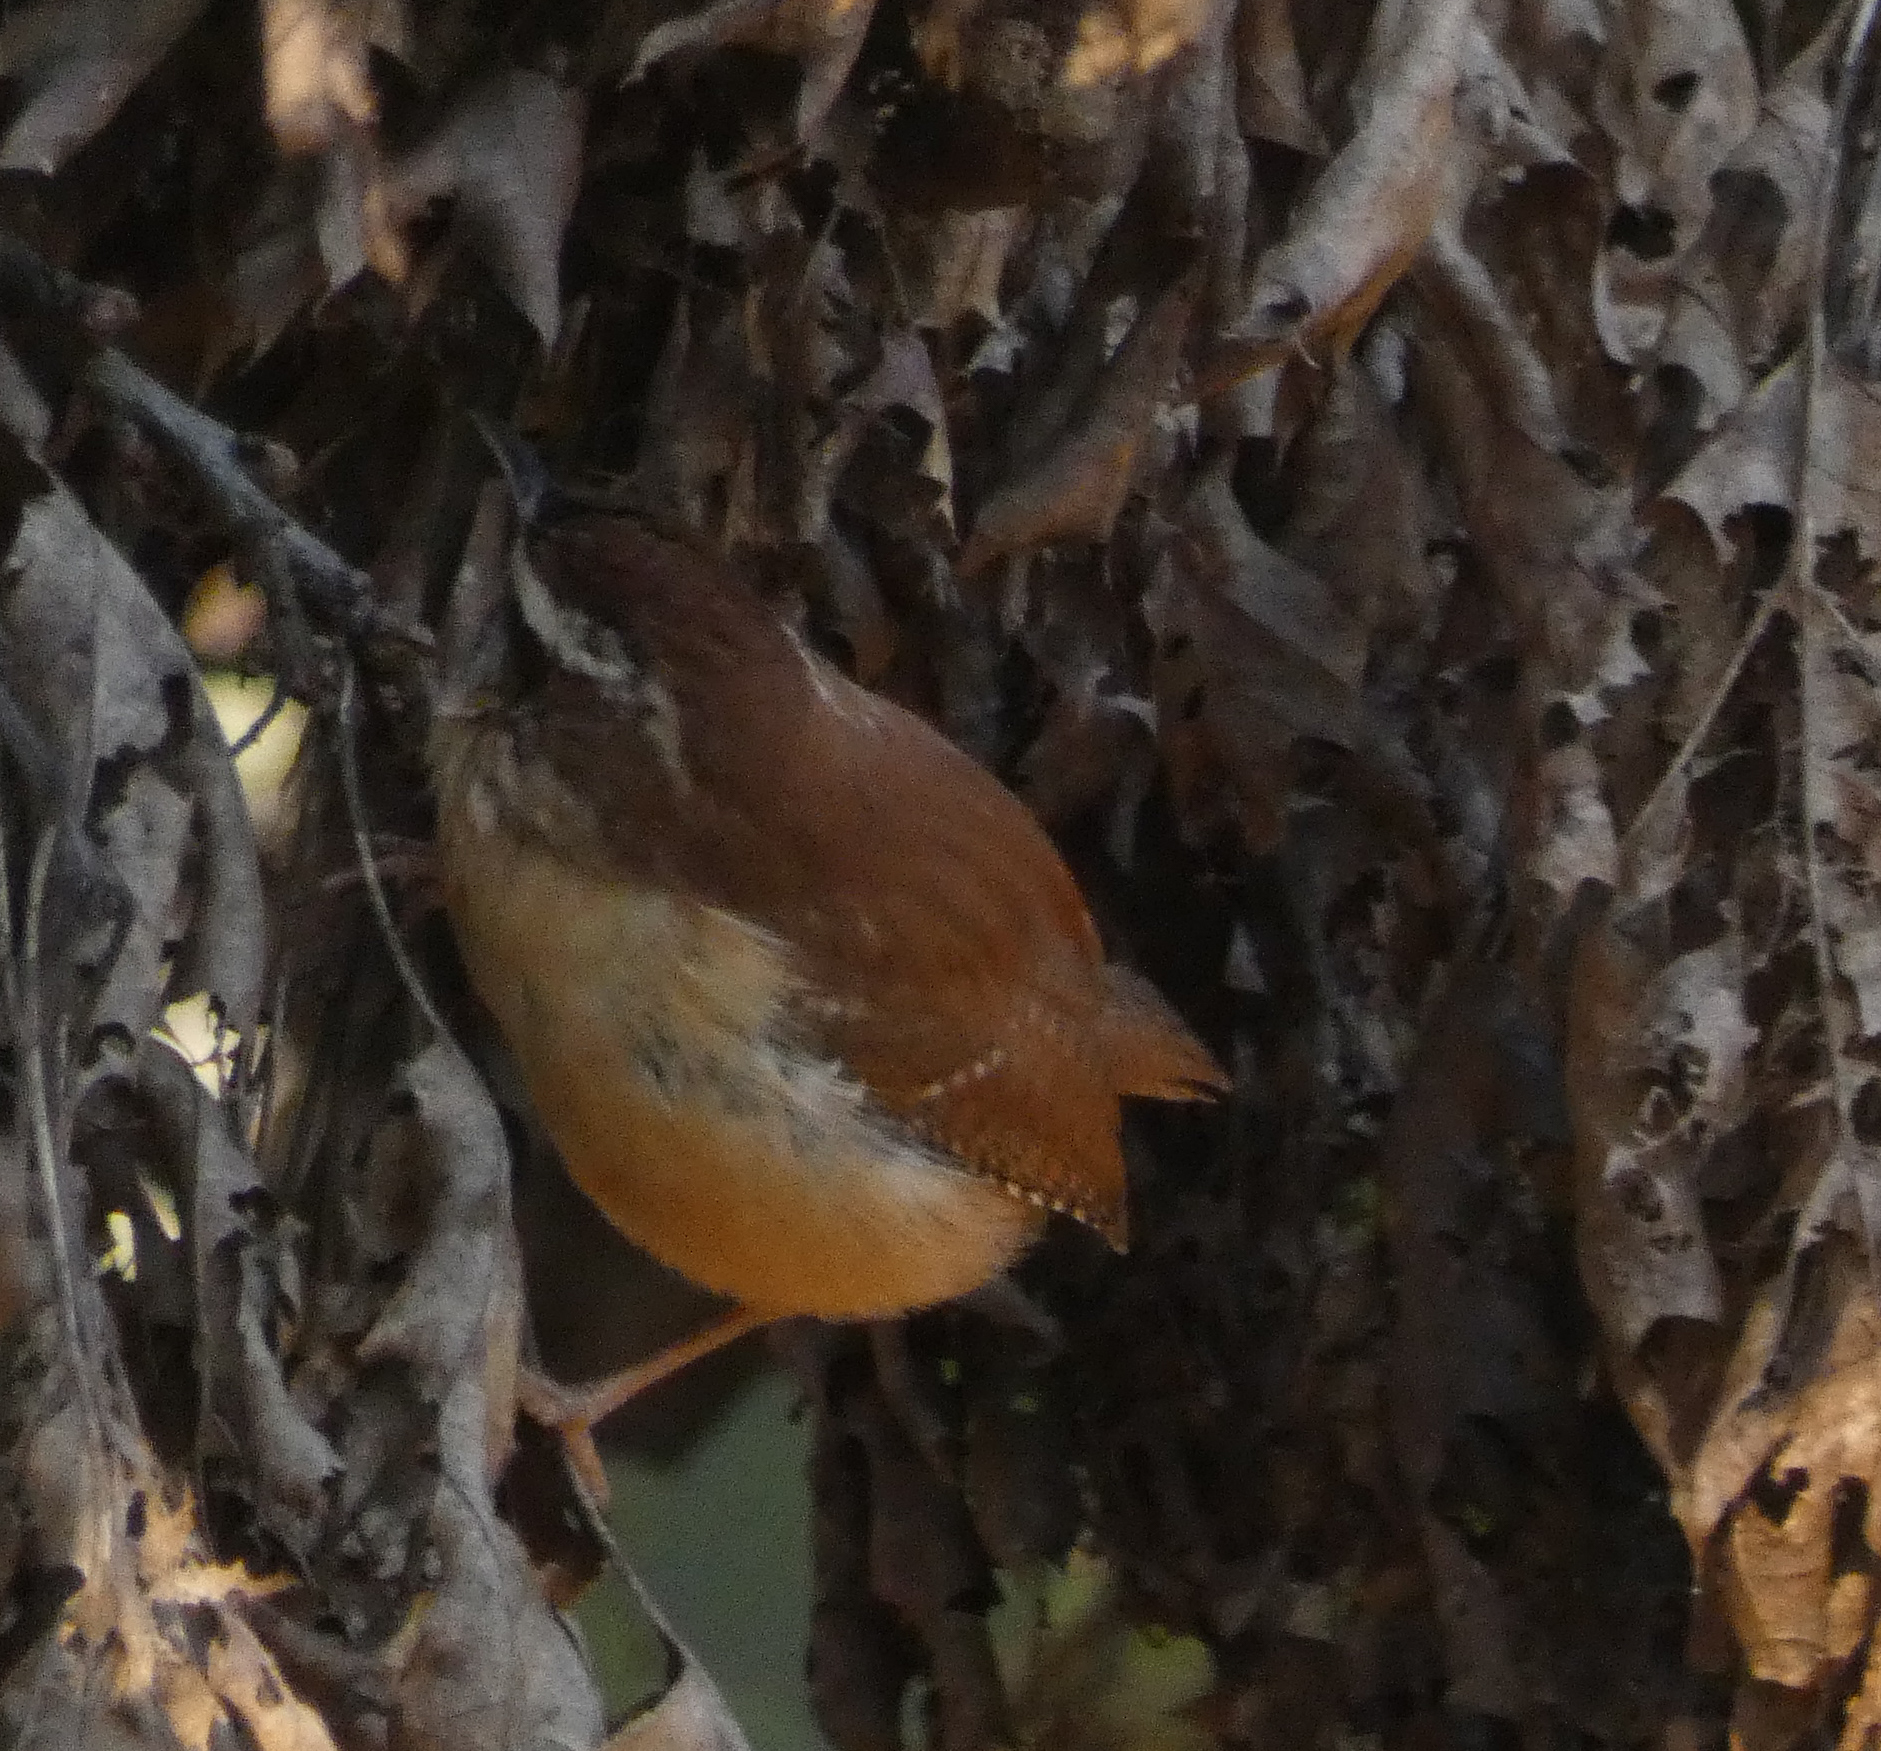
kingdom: Animalia
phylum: Chordata
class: Aves
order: Passeriformes
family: Troglodytidae
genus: Thryothorus
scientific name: Thryothorus ludovicianus
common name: Carolina wren
